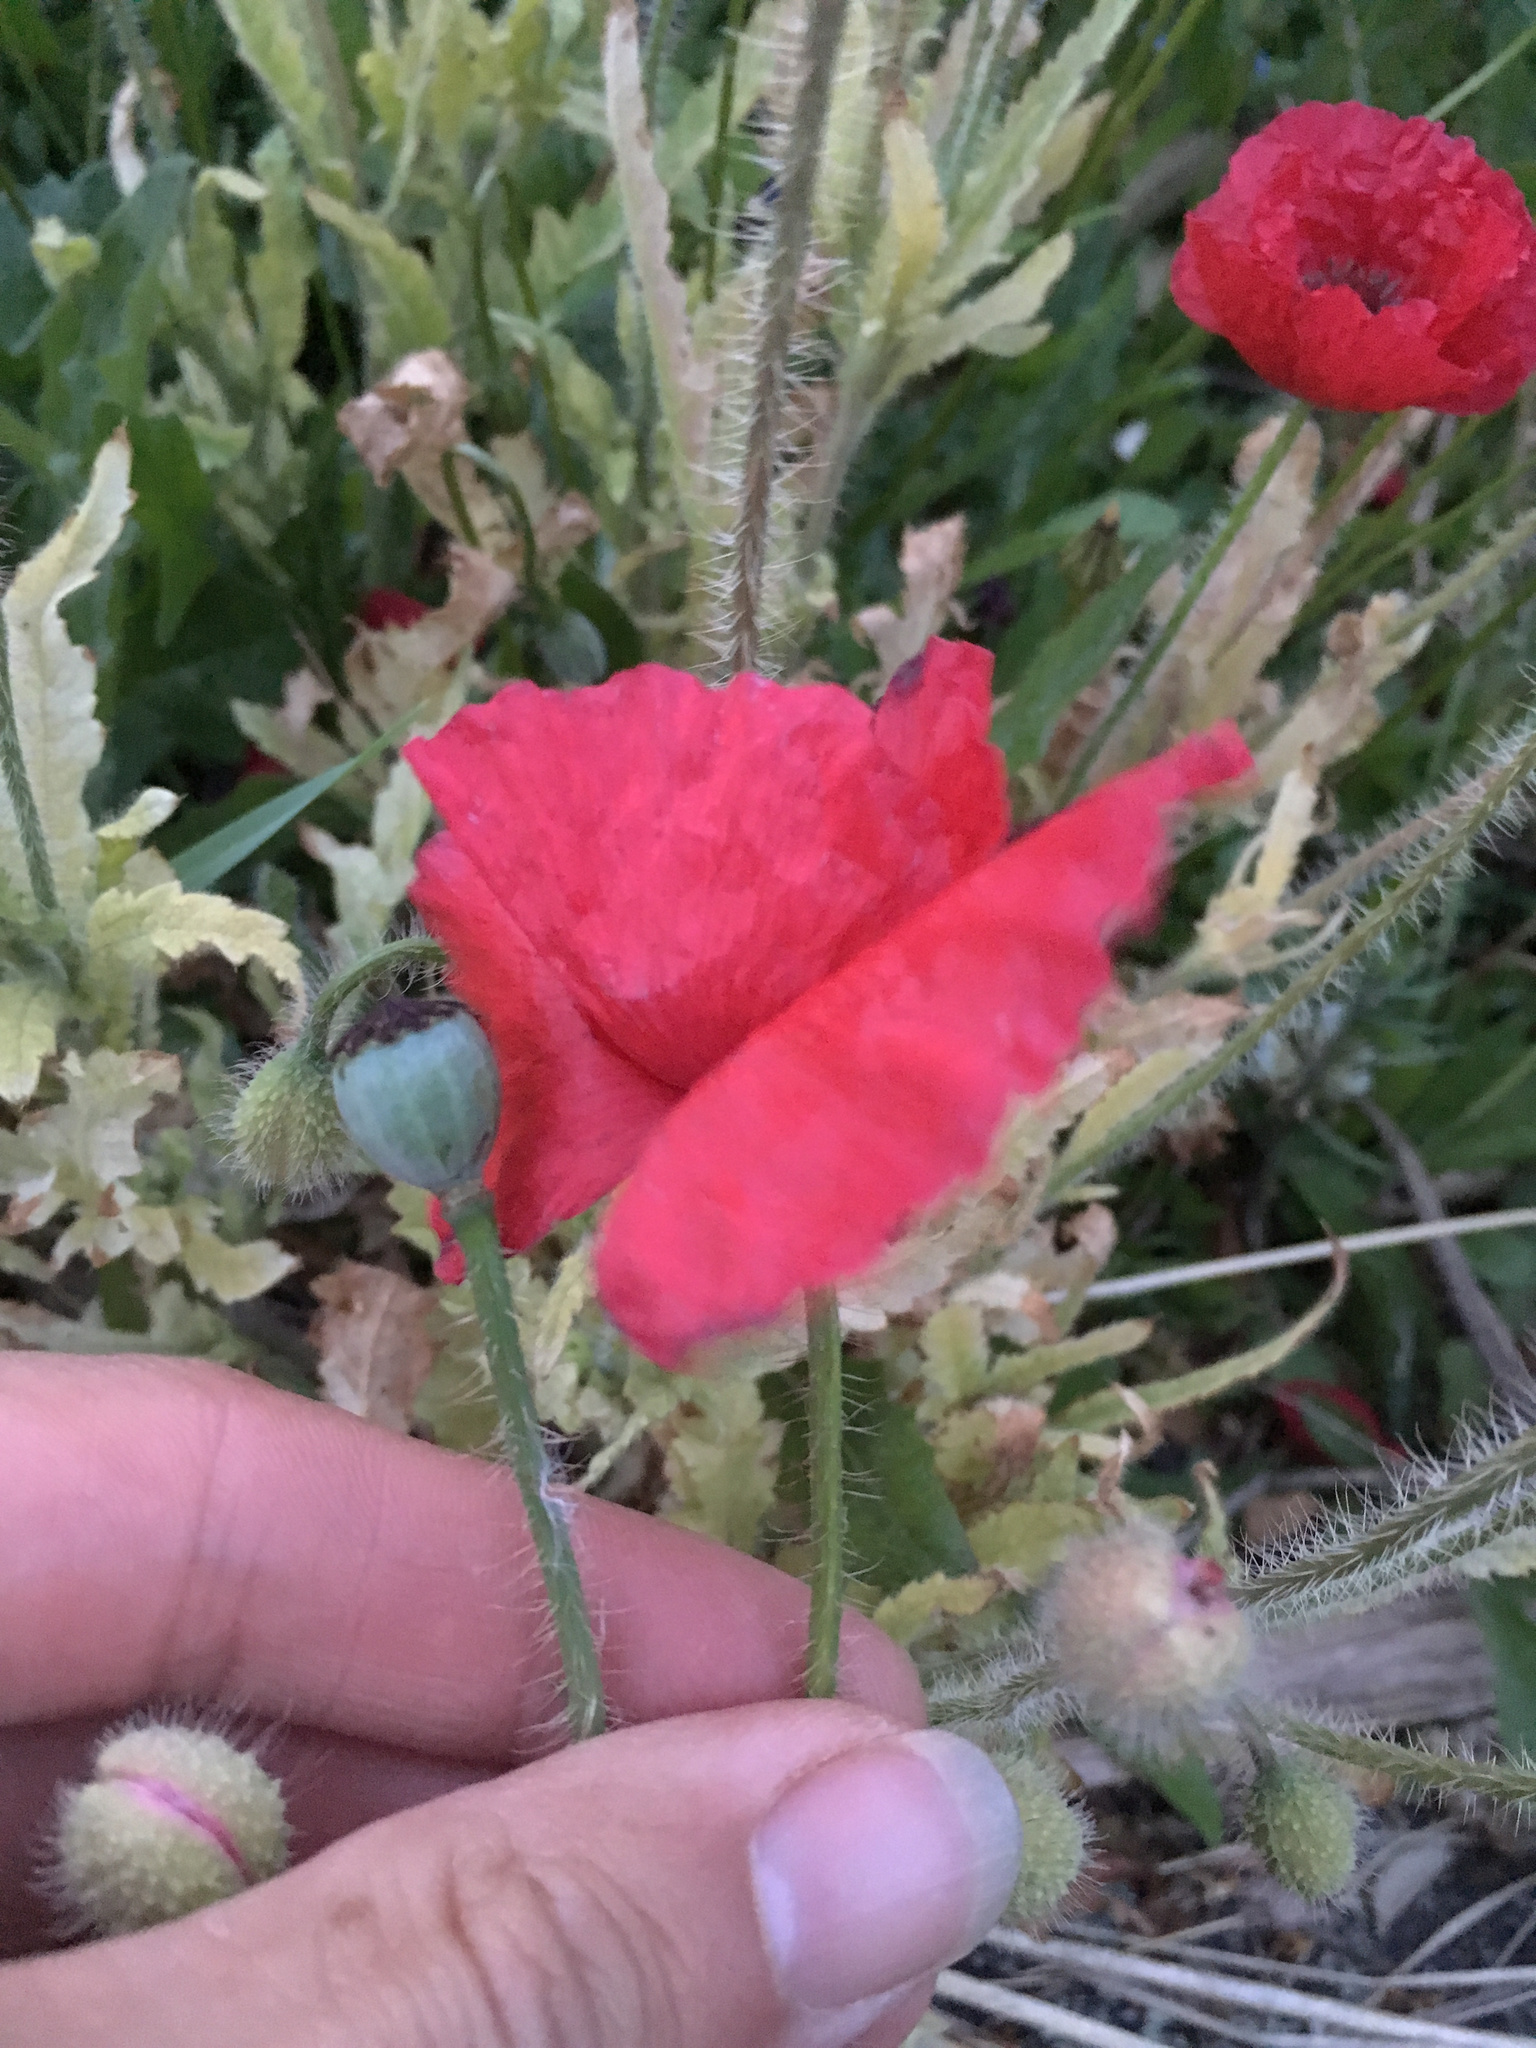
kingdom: Plantae
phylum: Tracheophyta
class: Magnoliopsida
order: Ranunculales
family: Papaveraceae
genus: Papaver
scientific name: Papaver rhoeas
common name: Corn poppy
